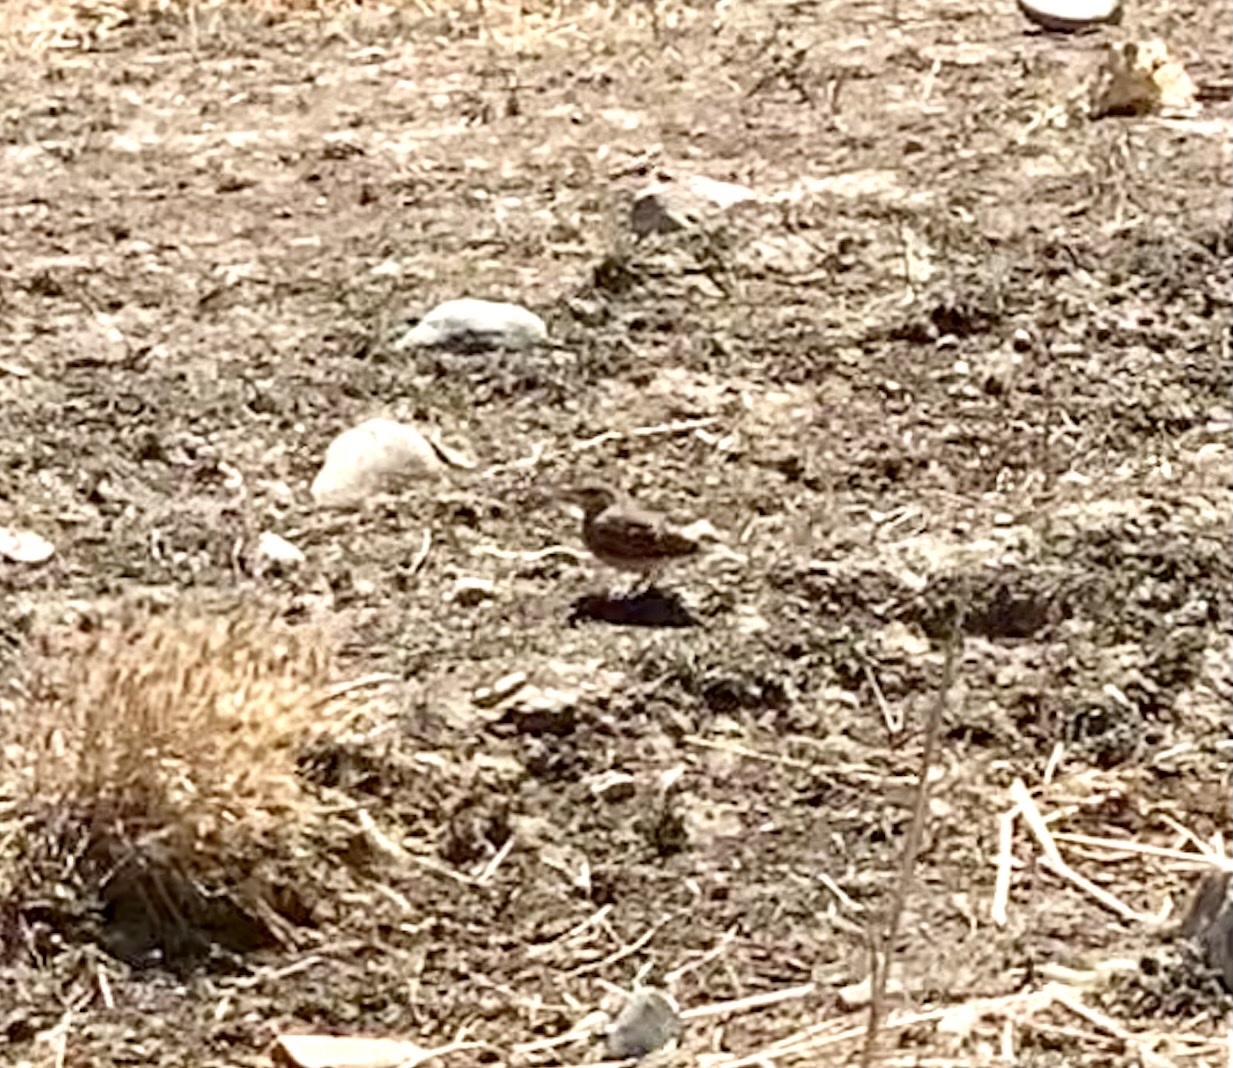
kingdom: Animalia
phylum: Chordata
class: Aves
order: Passeriformes
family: Alaudidae
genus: Galerida
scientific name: Galerida cristata
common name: Crested lark
